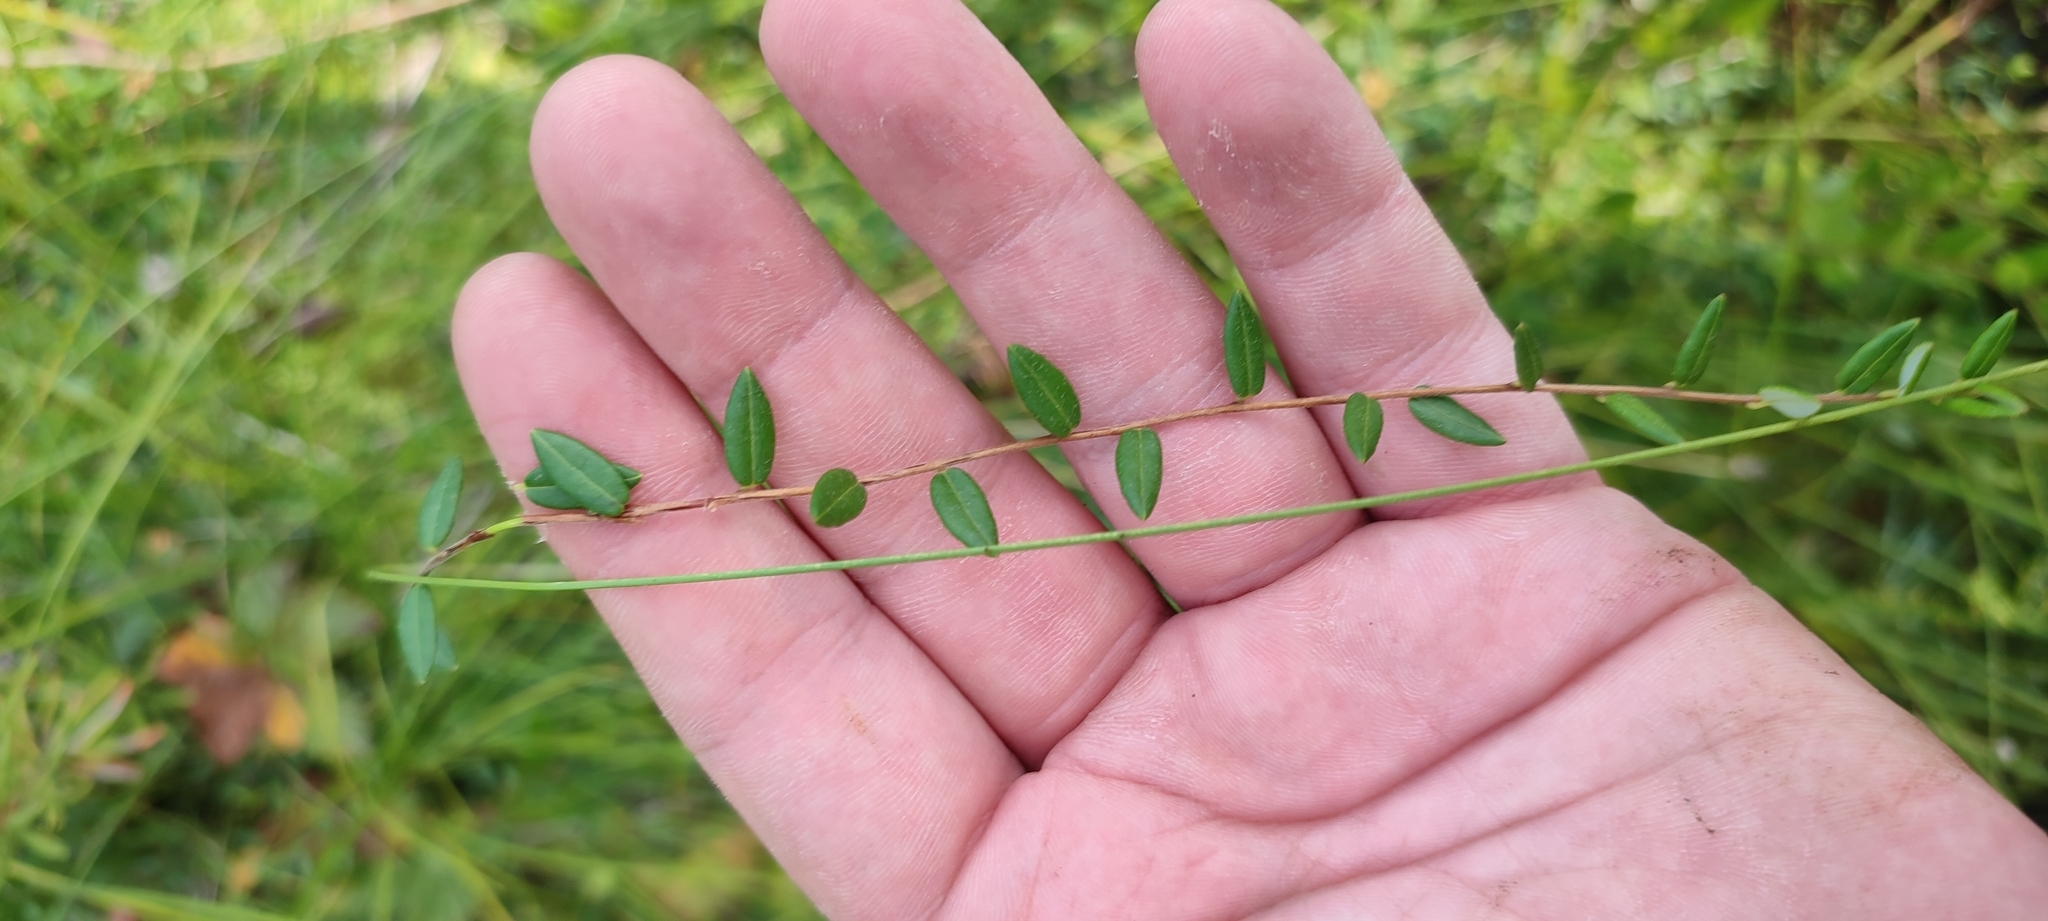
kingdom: Plantae
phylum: Tracheophyta
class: Magnoliopsida
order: Ericales
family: Ericaceae
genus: Vaccinium
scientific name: Vaccinium oxycoccos
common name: Cranberry
